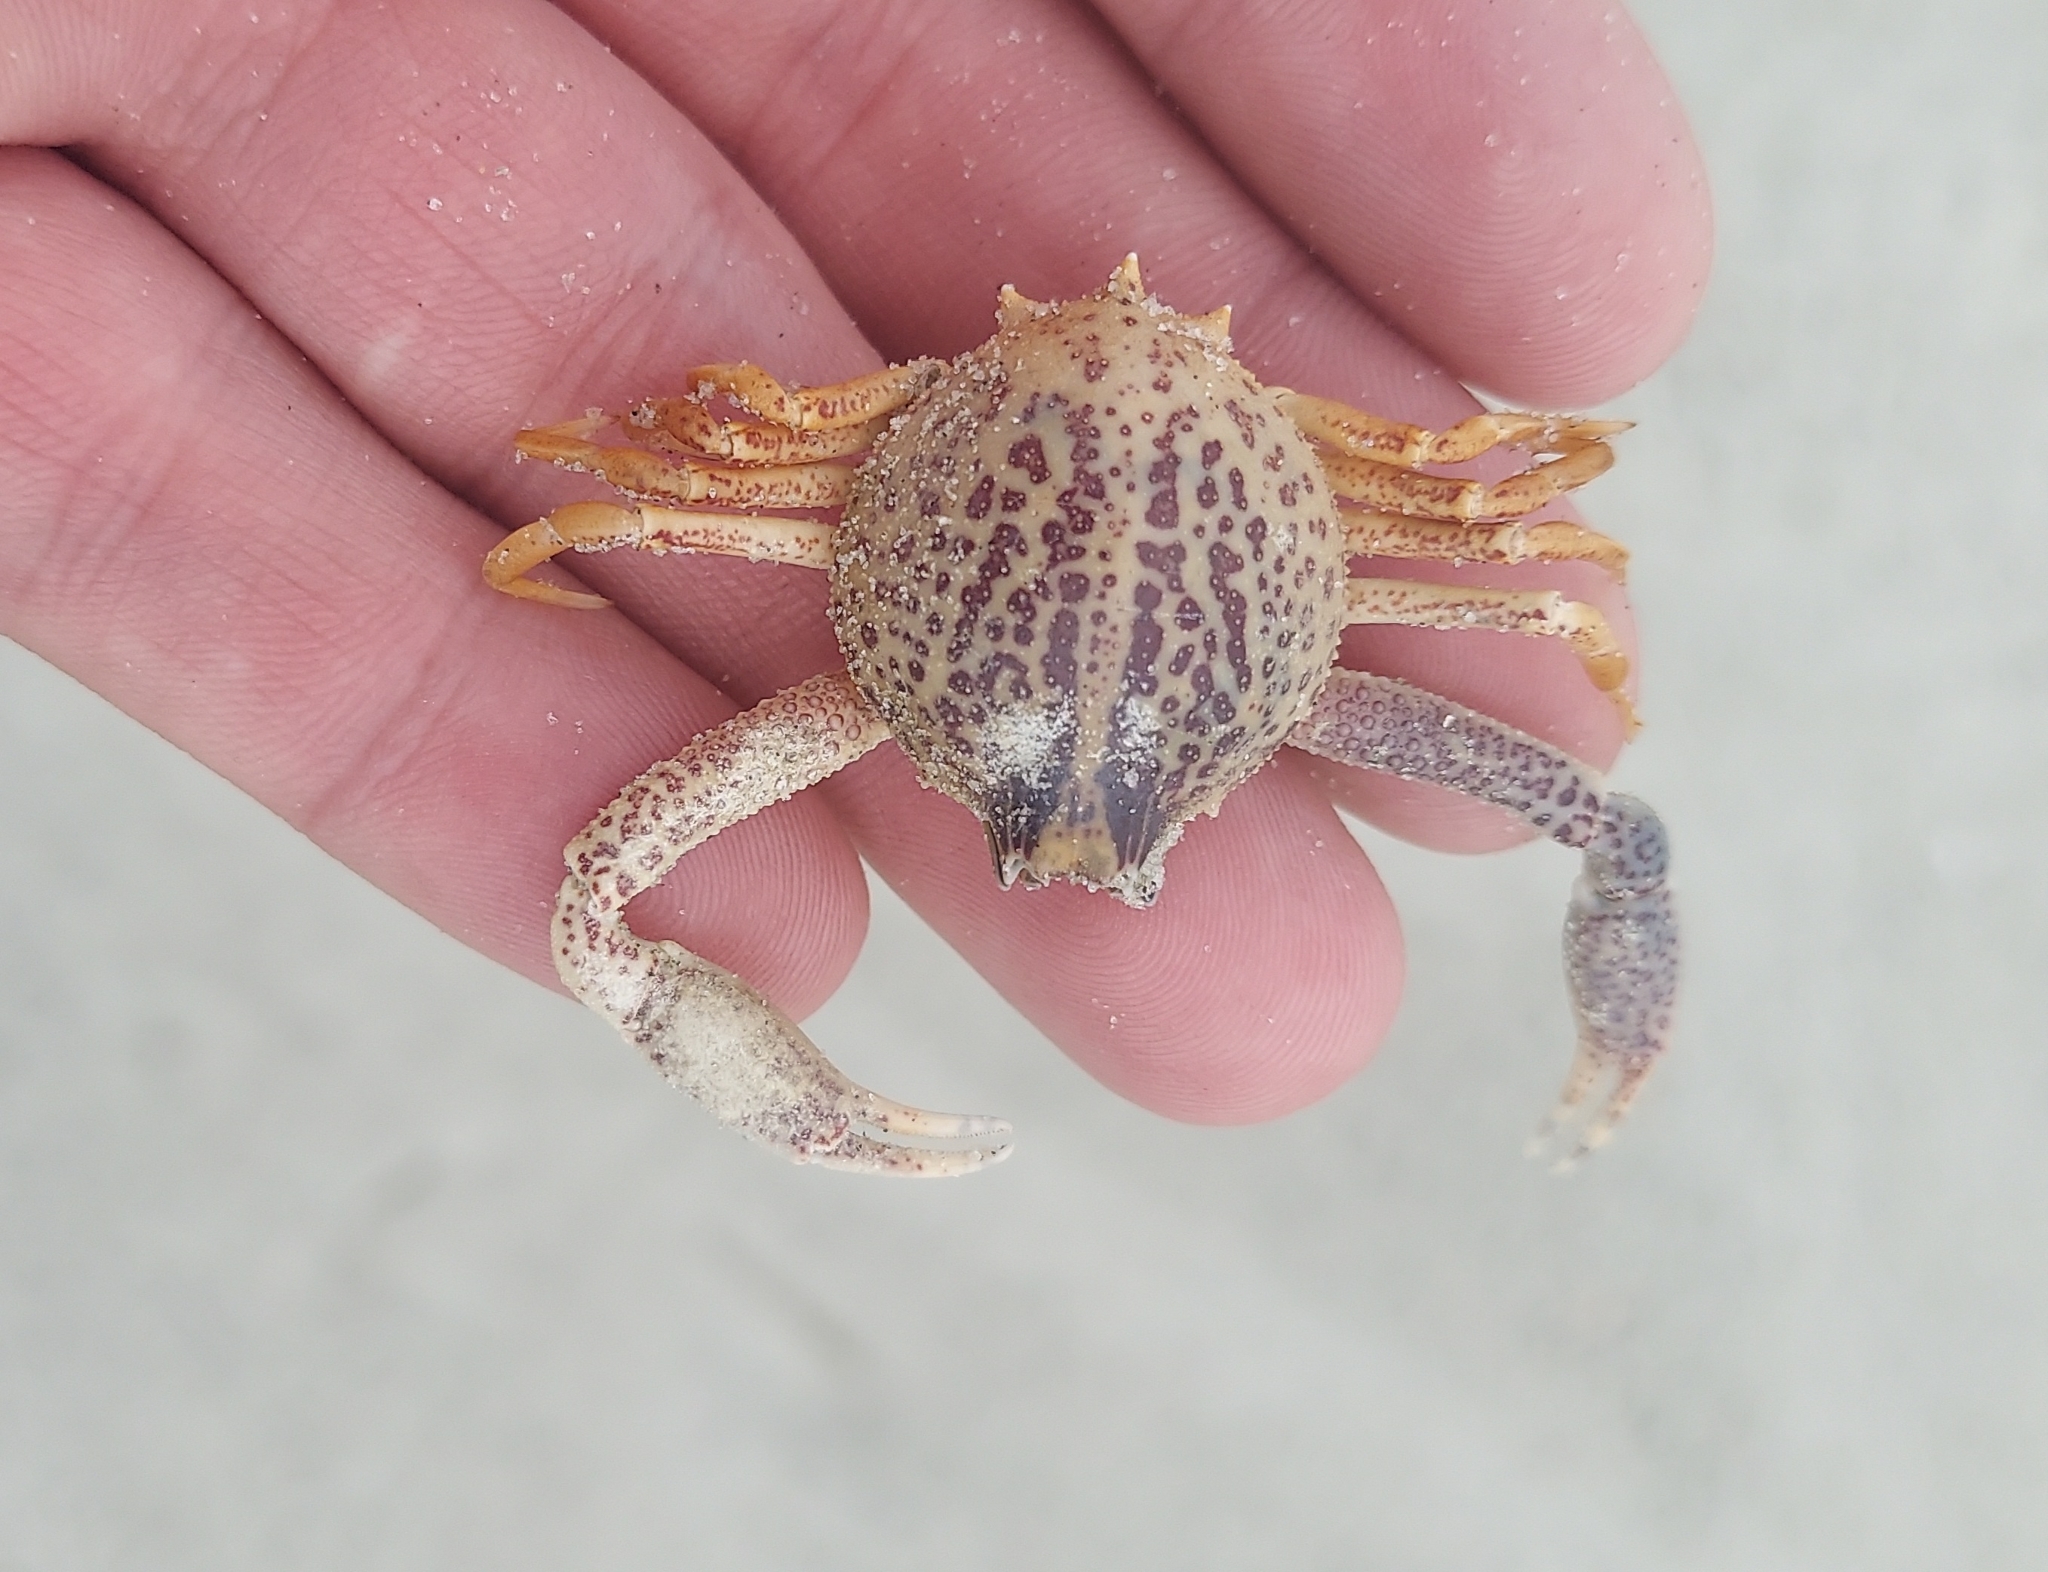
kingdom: Animalia
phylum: Arthropoda
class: Malacostraca
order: Decapoda
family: Leucosiidae
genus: Persephona
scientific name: Persephona aquilonaris
